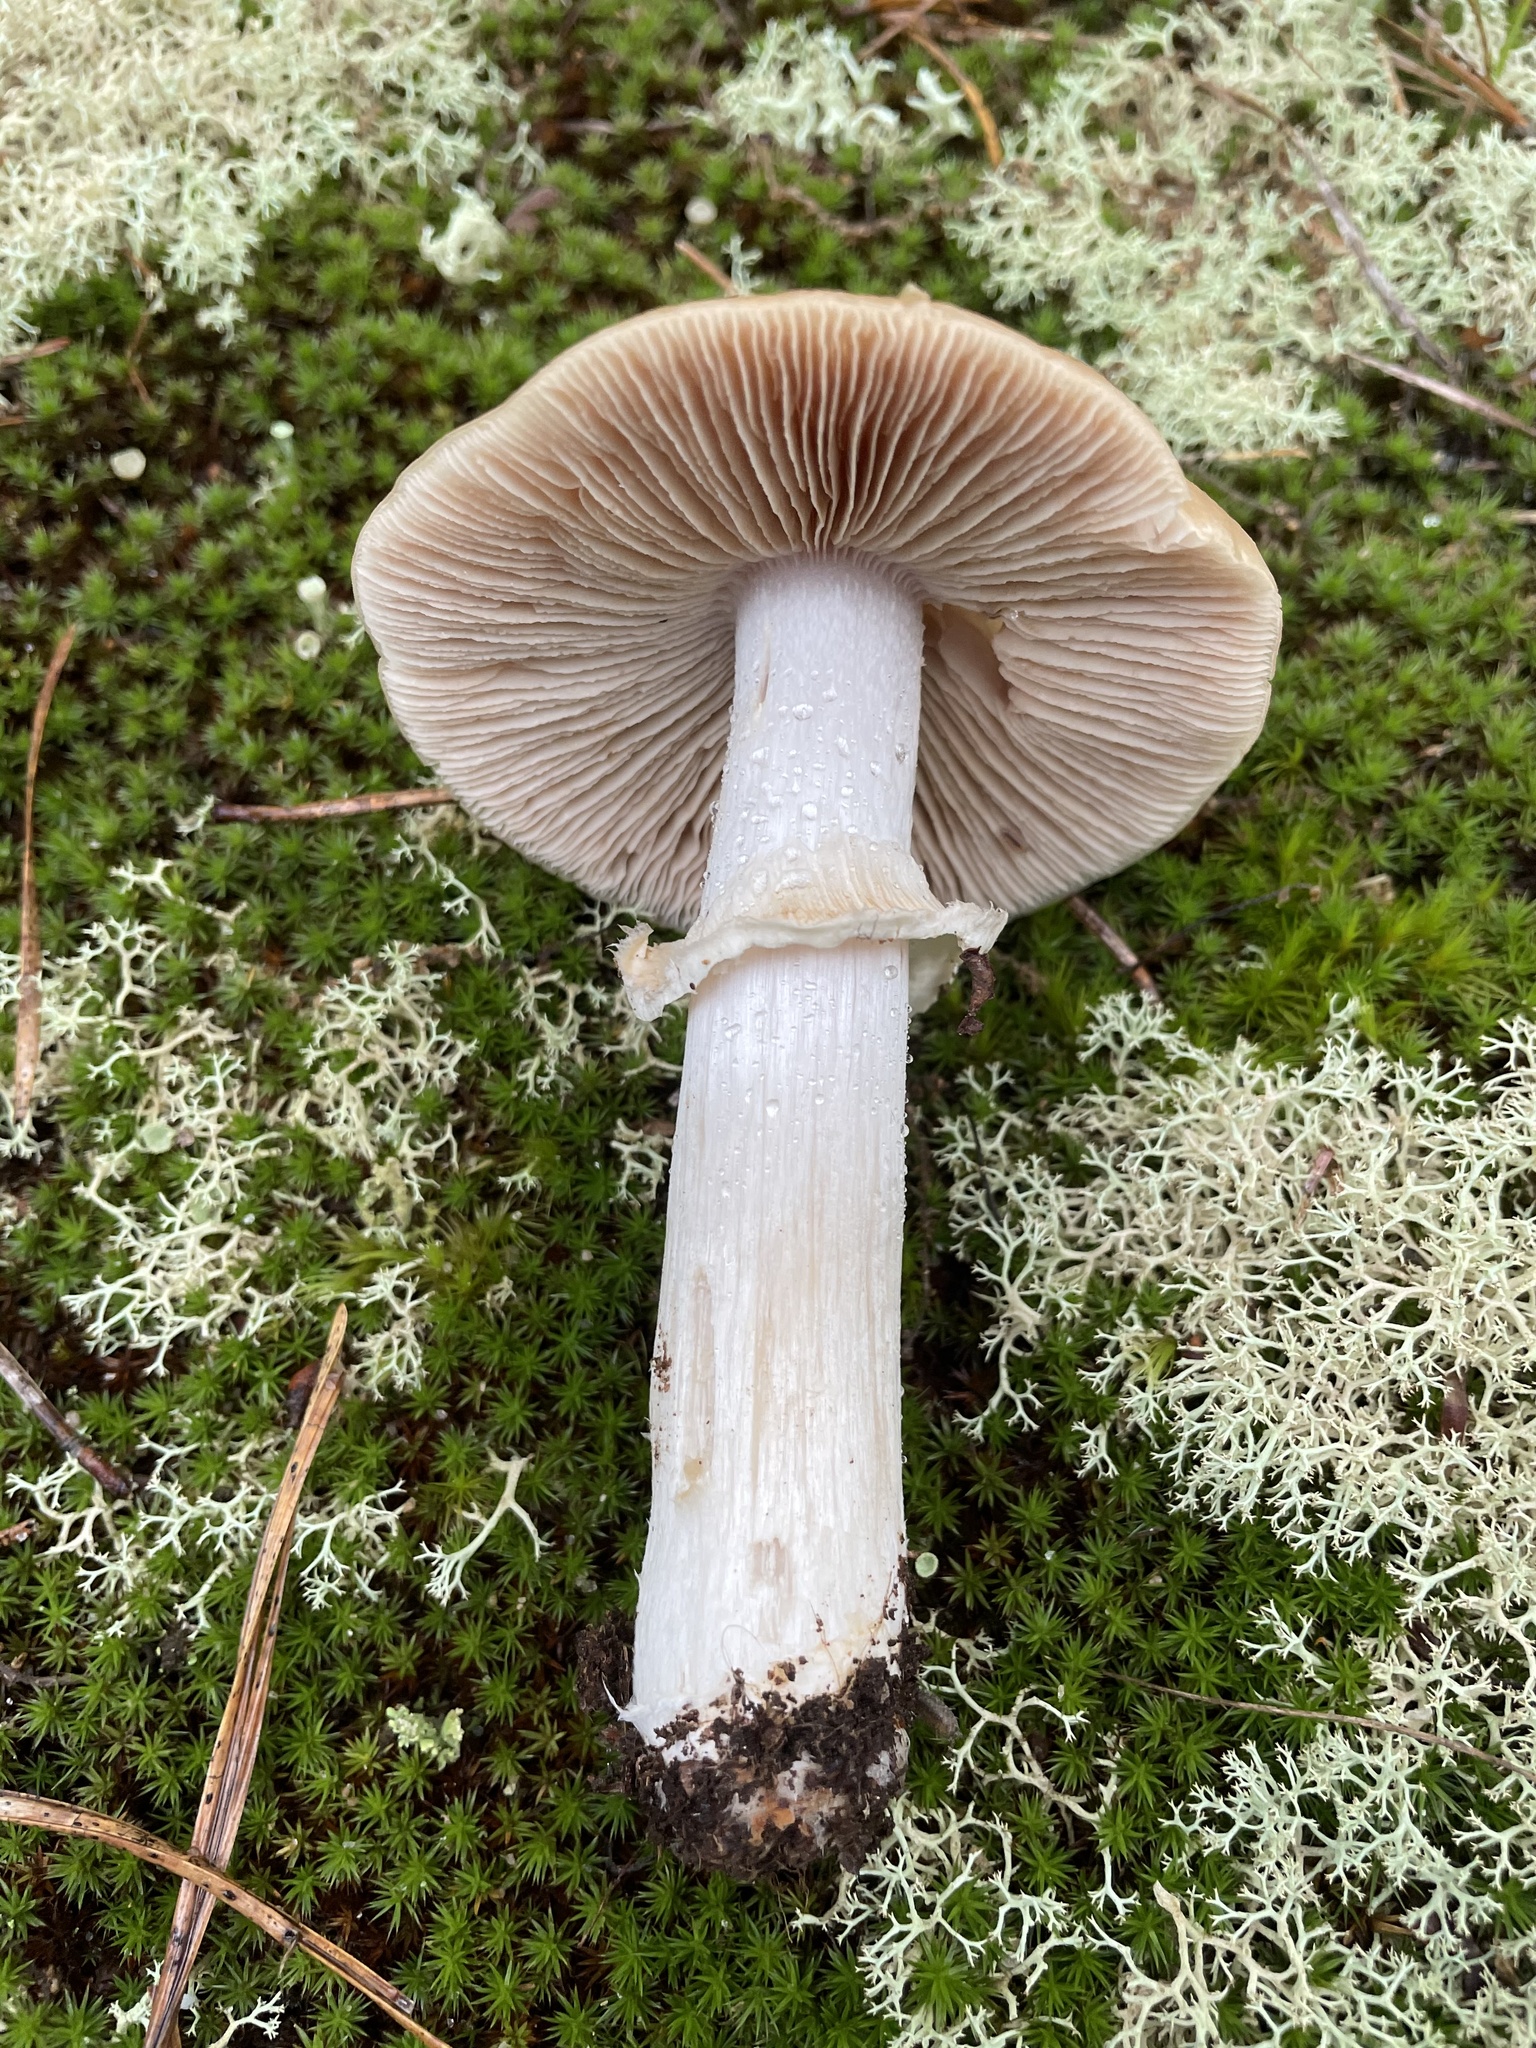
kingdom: Fungi
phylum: Basidiomycota
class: Agaricomycetes
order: Agaricales
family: Cortinariaceae
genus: Cortinarius
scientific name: Cortinarius caperatus
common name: The gypsy
